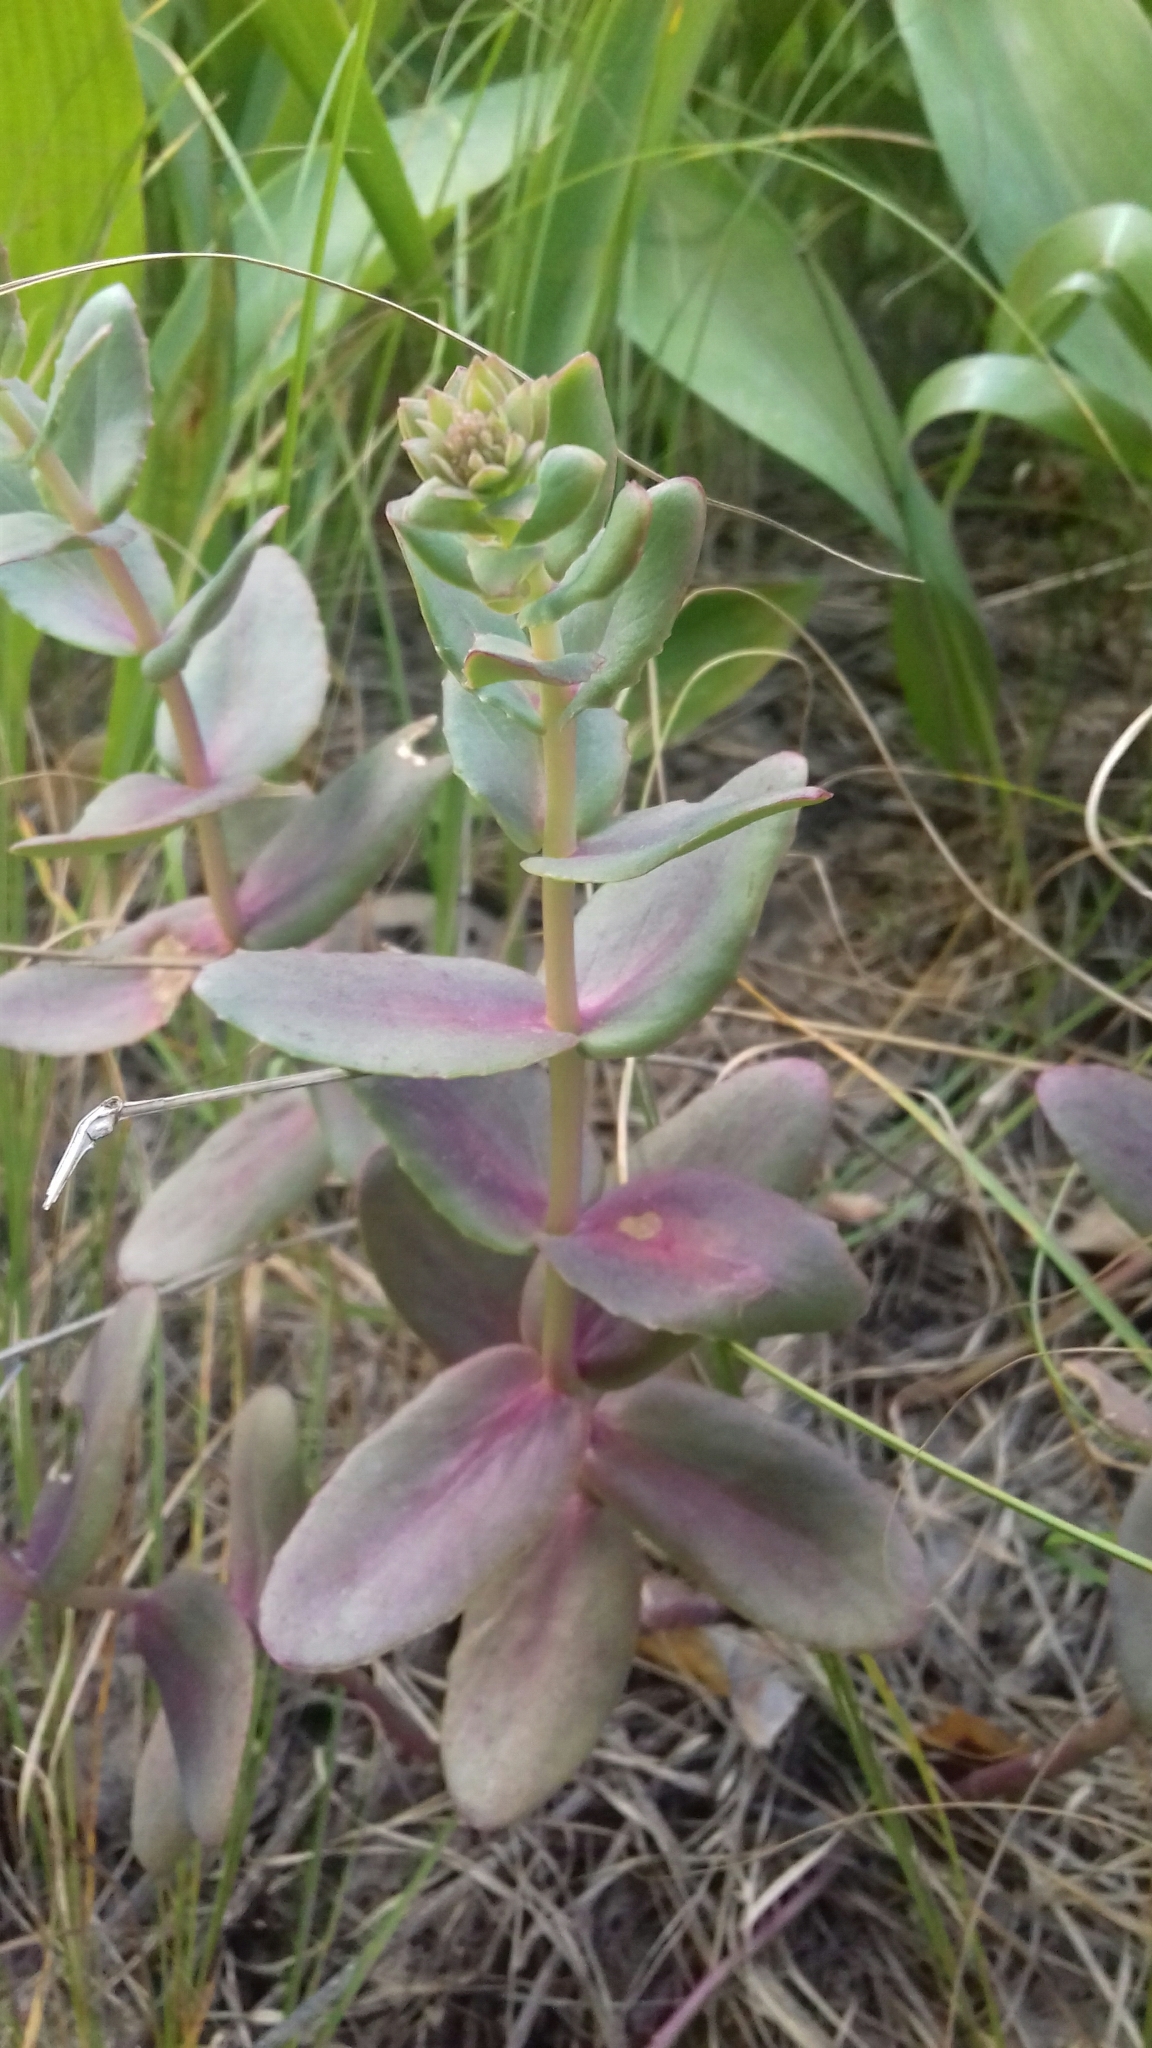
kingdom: Plantae
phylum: Tracheophyta
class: Magnoliopsida
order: Saxifragales
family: Crassulaceae
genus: Hylotelephium
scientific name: Hylotelephium maximum
